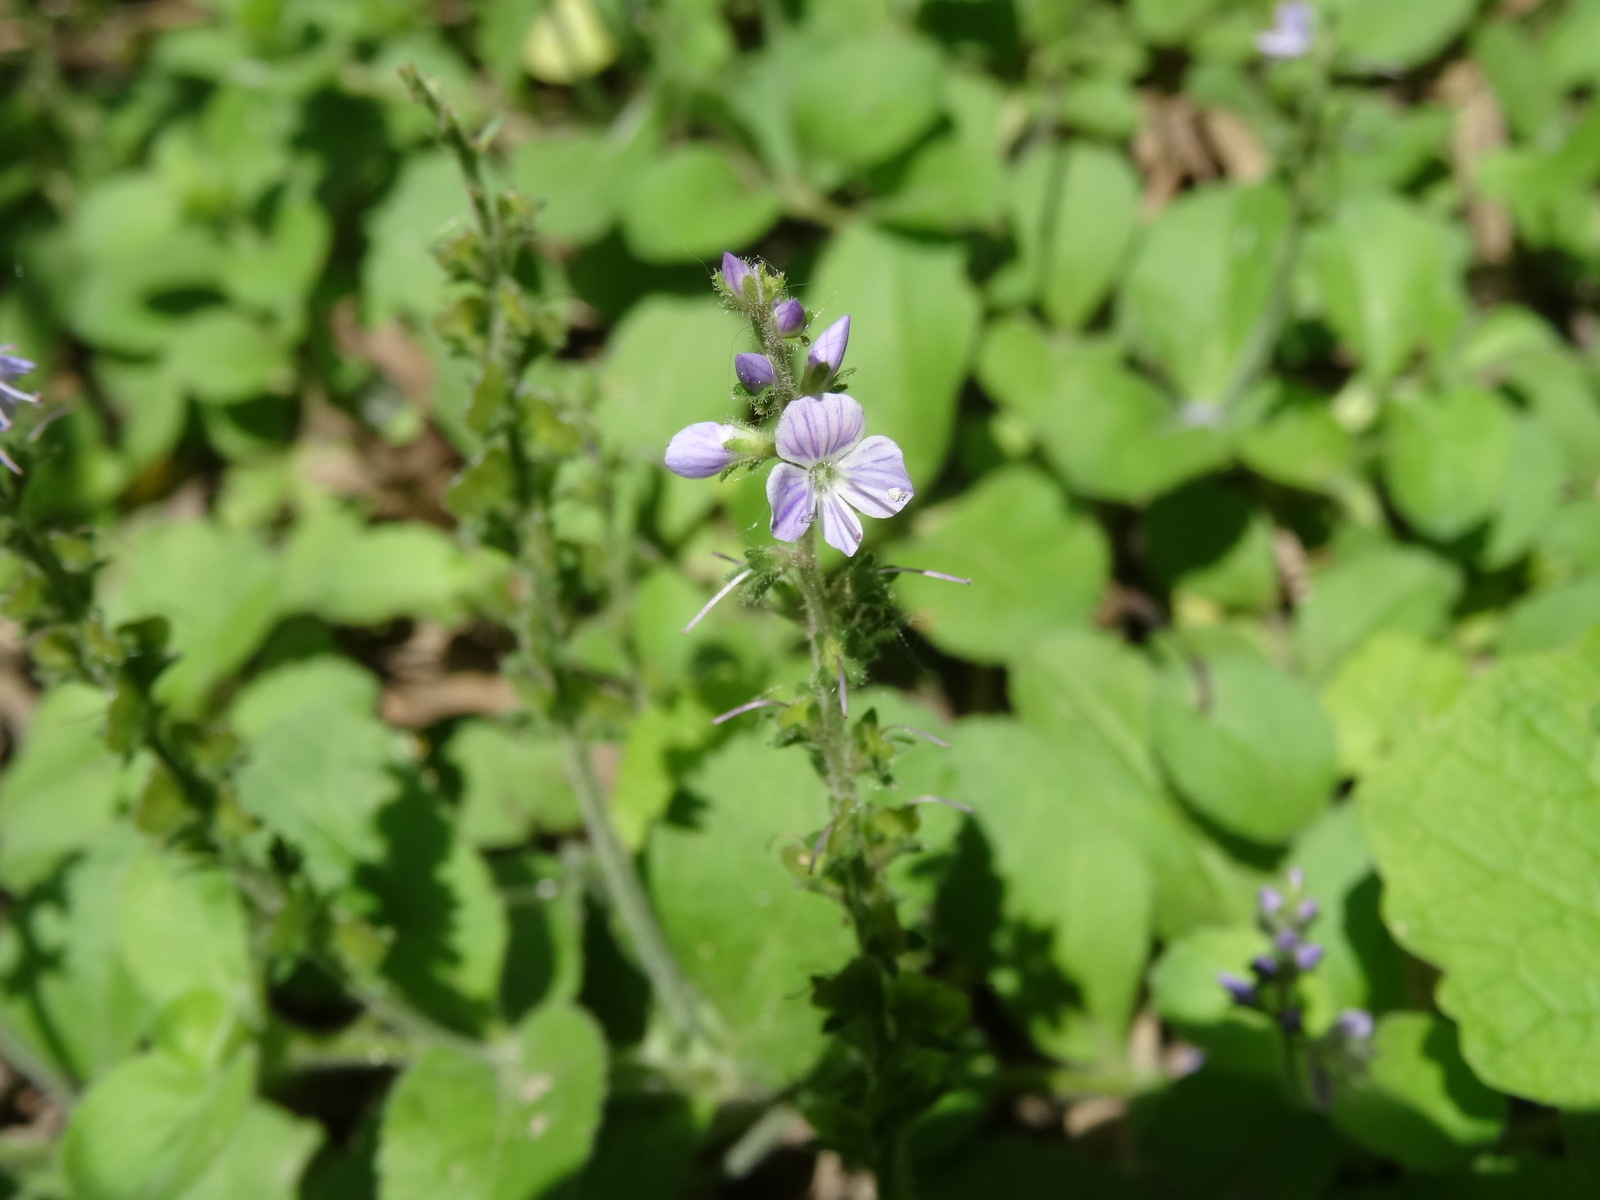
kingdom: Plantae
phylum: Tracheophyta
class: Magnoliopsida
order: Lamiales
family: Plantaginaceae
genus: Veronica
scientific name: Veronica officinalis
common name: Common speedwell
